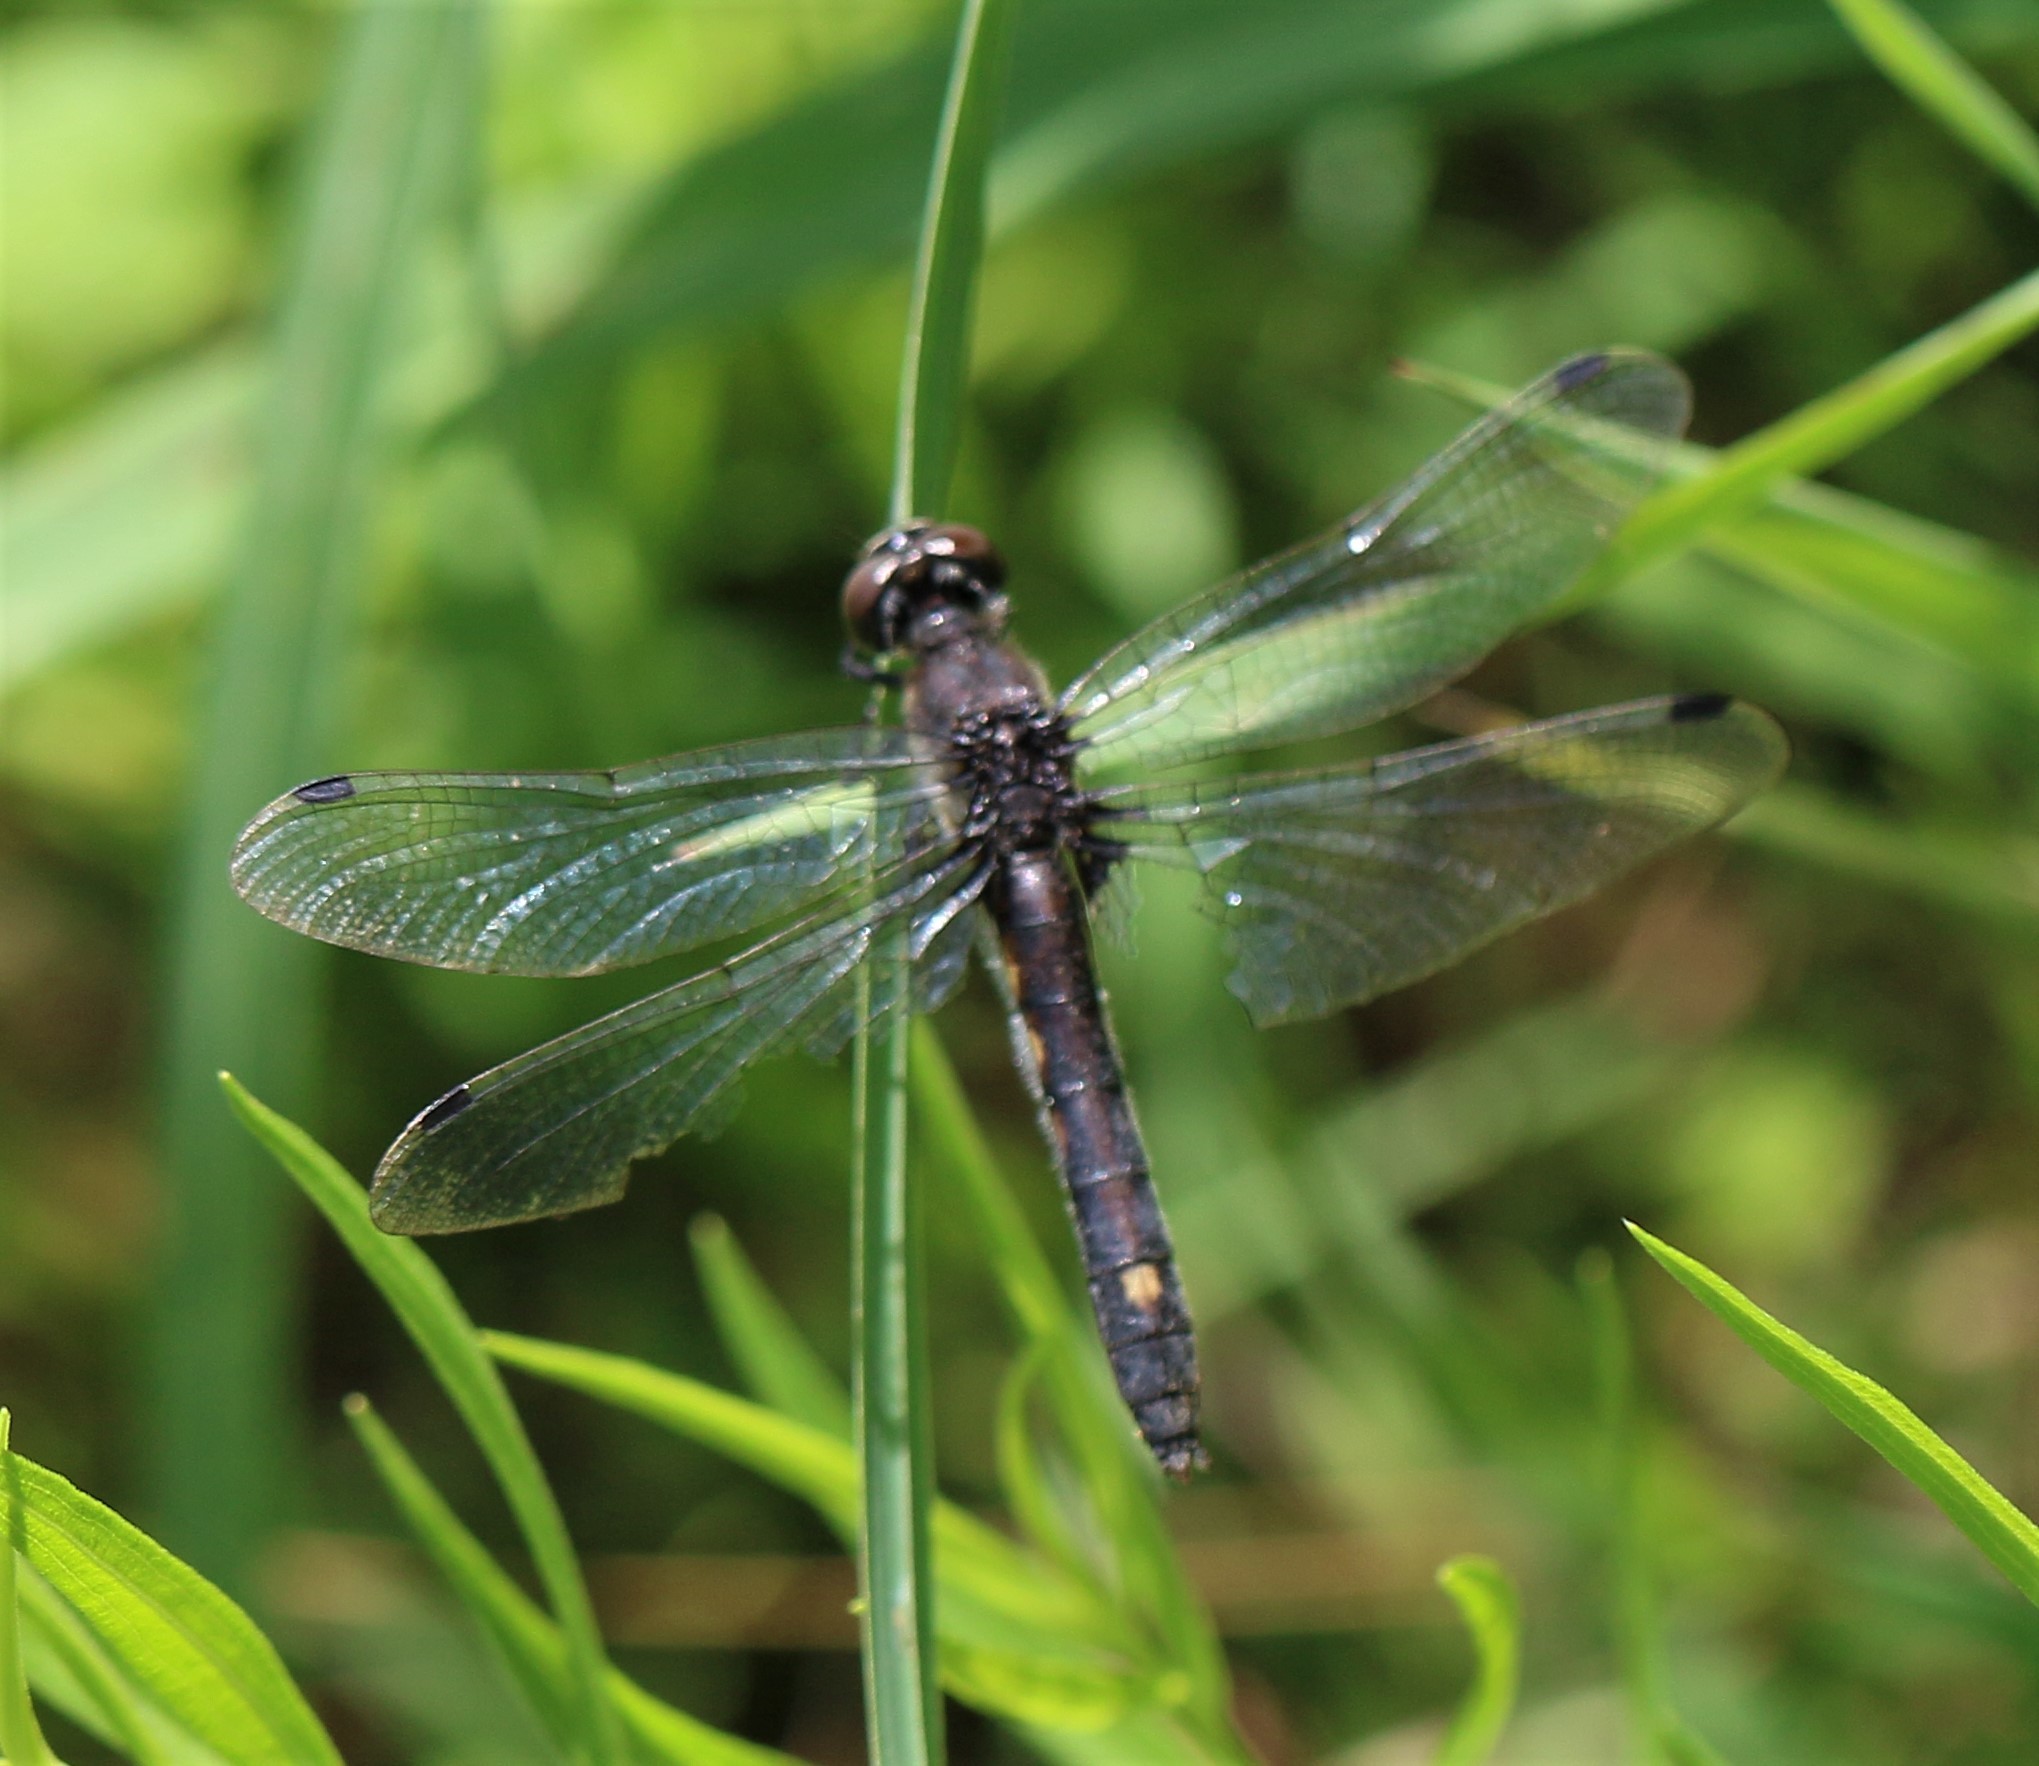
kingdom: Animalia
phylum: Arthropoda
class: Insecta
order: Odonata
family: Libellulidae
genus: Leucorrhinia
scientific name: Leucorrhinia intacta
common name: Dot-tailed whiteface
